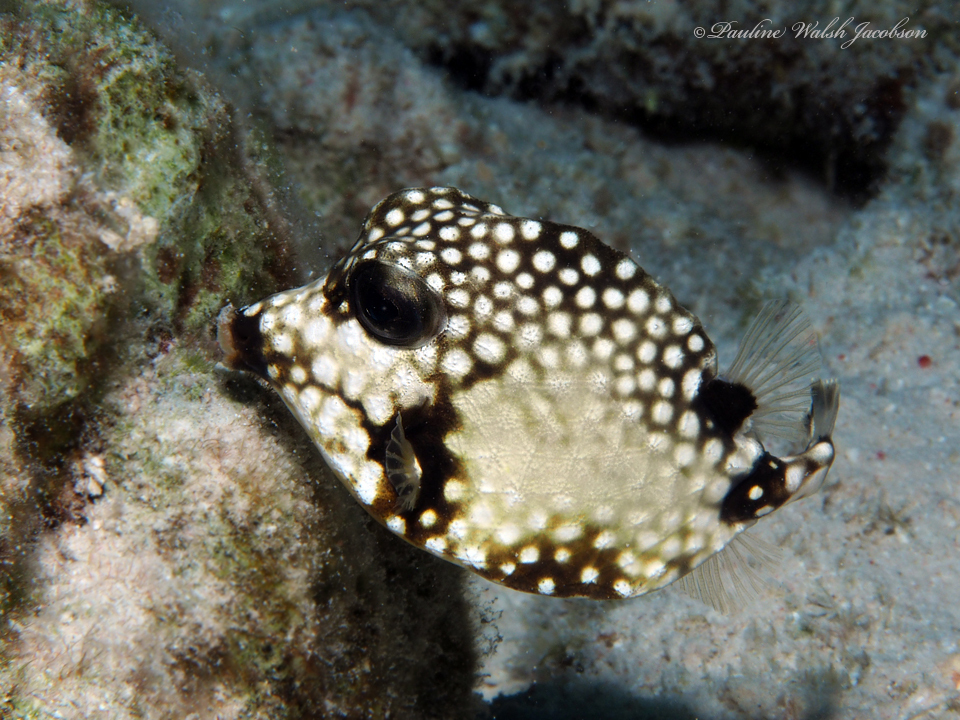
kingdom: Animalia
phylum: Chordata
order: Tetraodontiformes
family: Ostraciidae
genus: Lactophrys
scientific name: Lactophrys triqueter
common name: Smooth trunkfish
